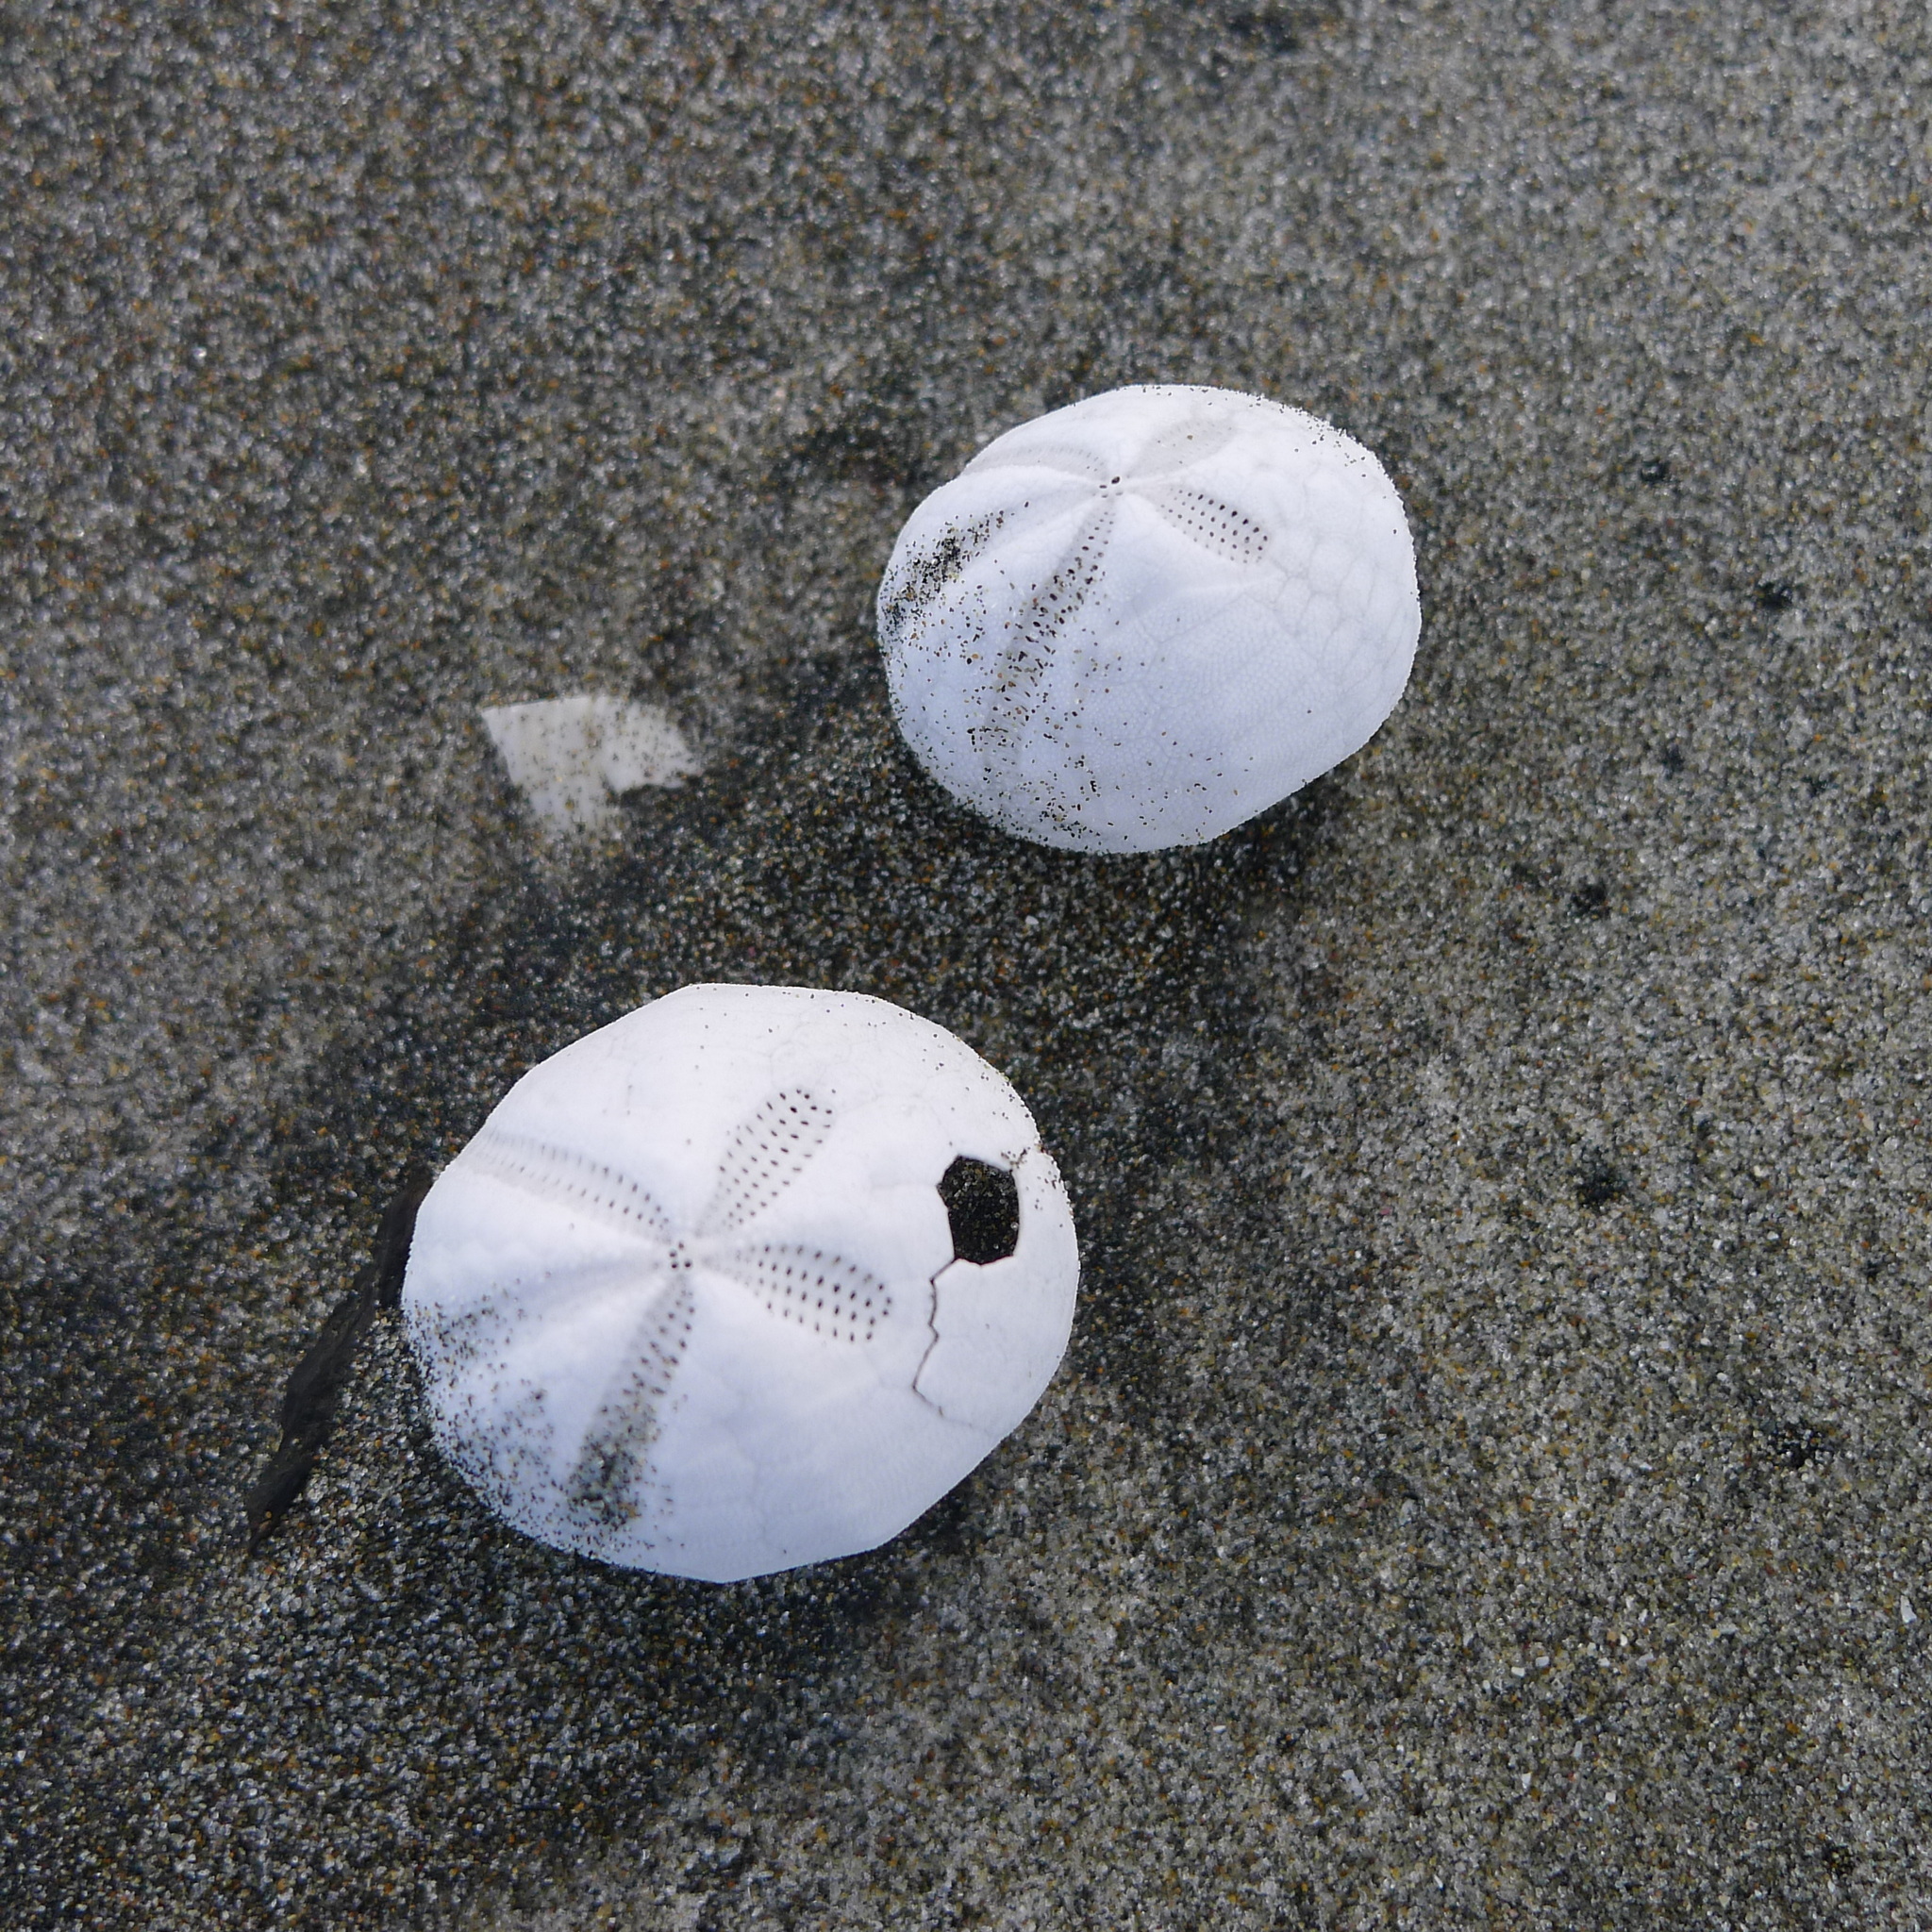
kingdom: Animalia
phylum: Echinodermata
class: Echinoidea
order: Spatangoida
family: Prenasteridae
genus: Agassizia
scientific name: Agassizia scrobiculata
